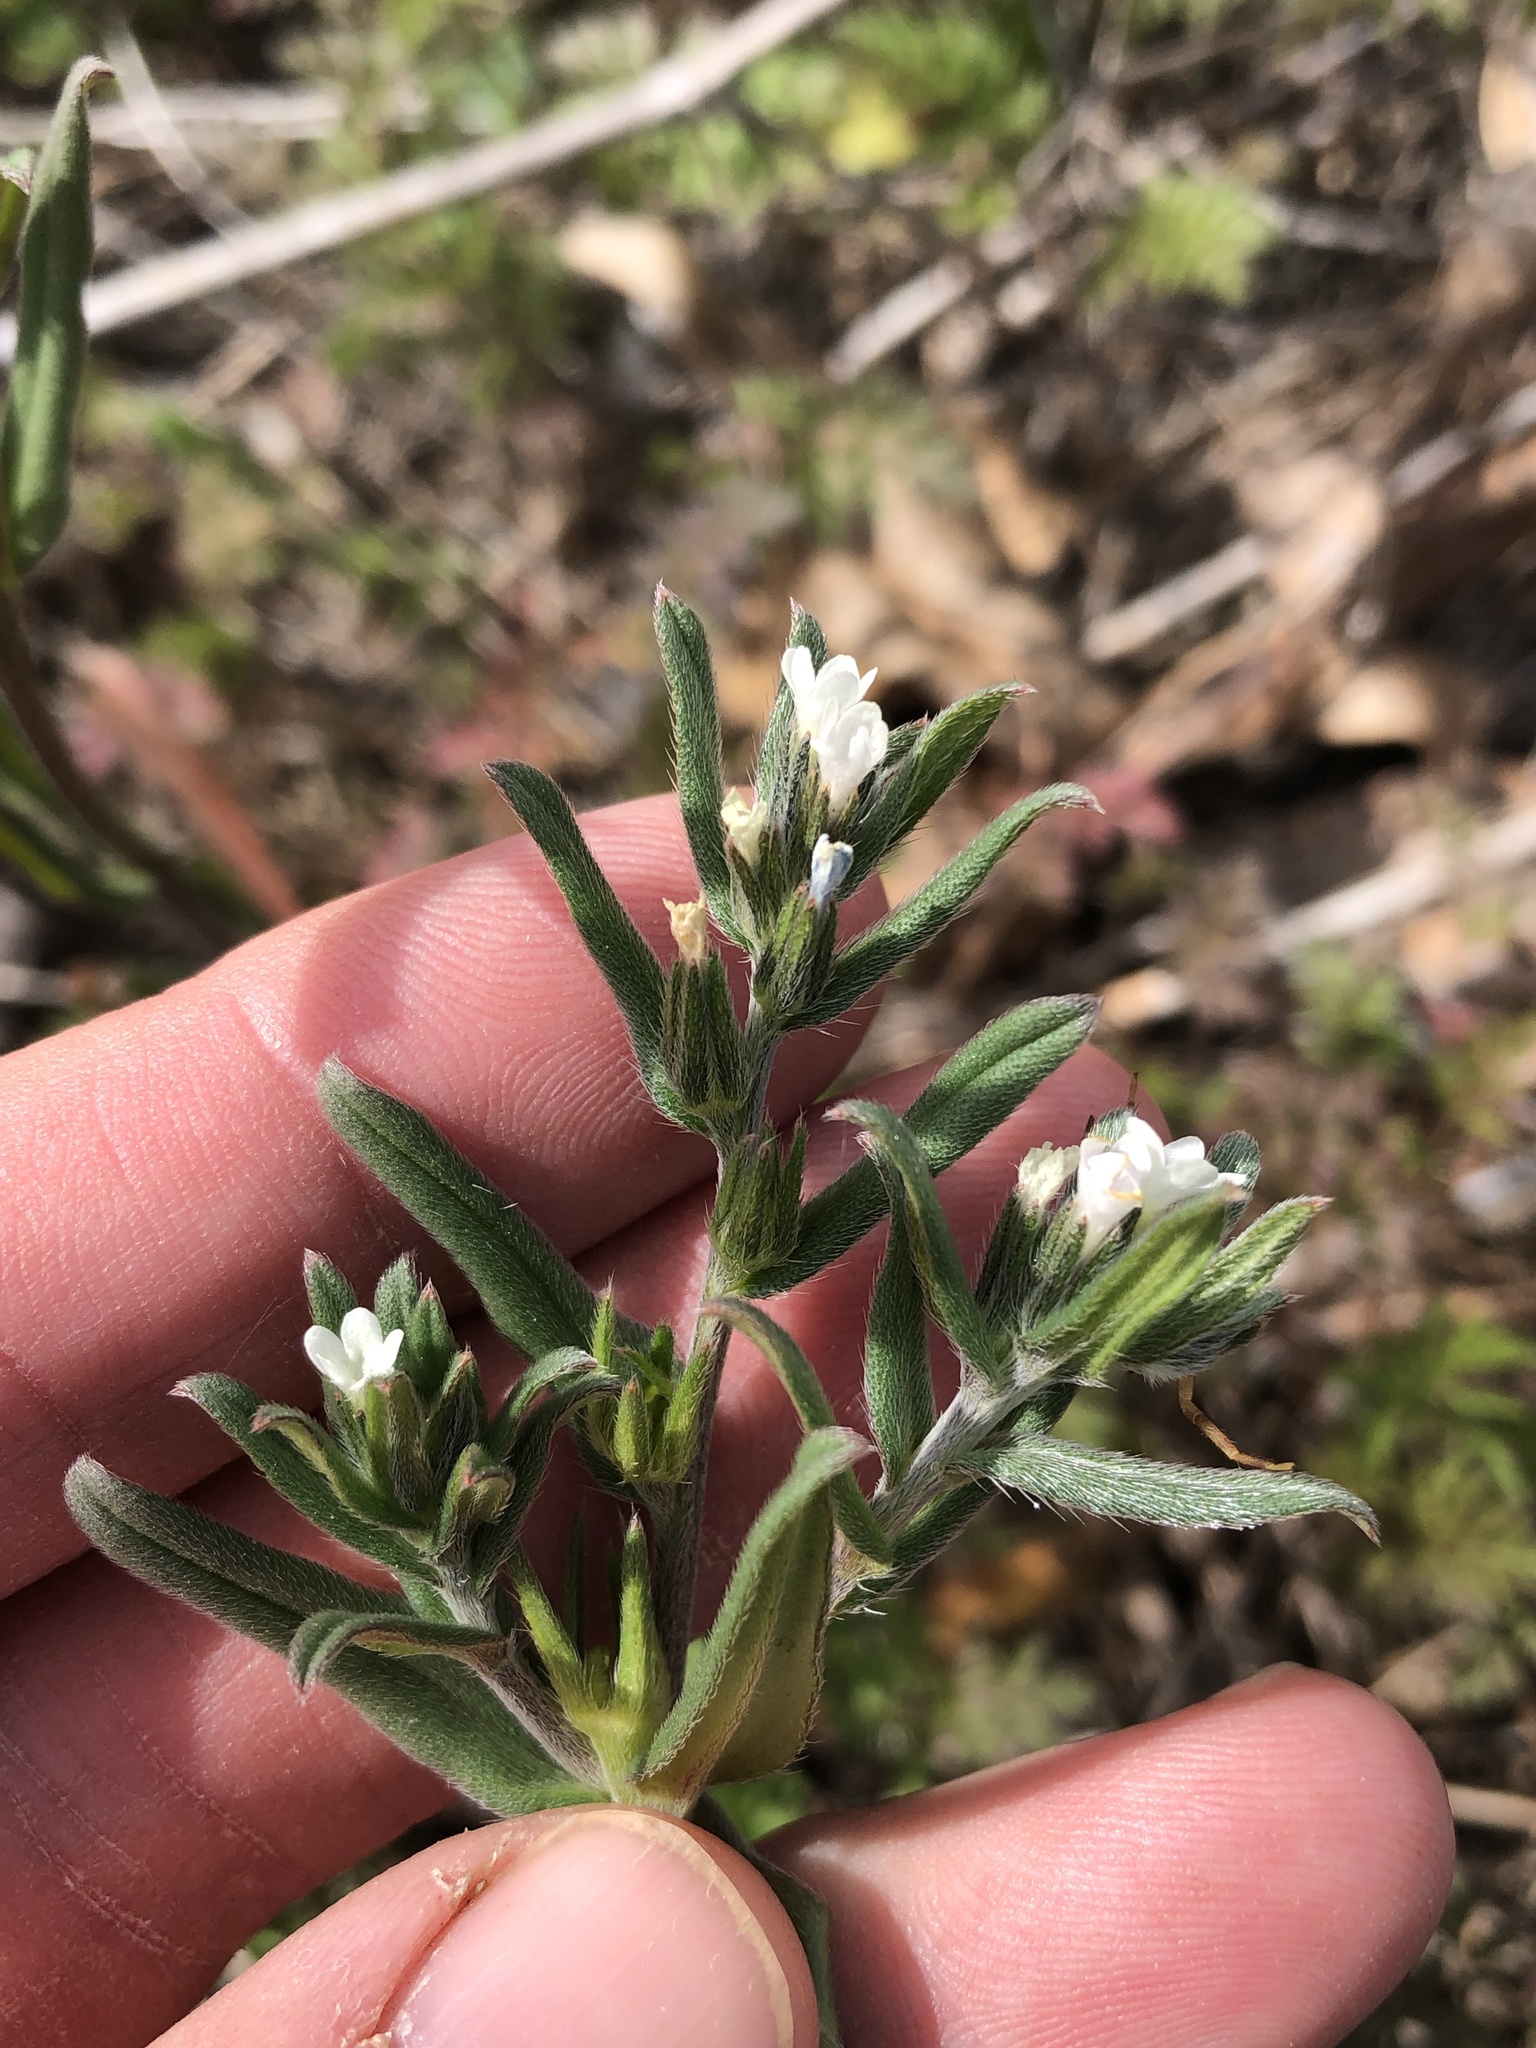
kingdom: Plantae
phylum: Tracheophyta
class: Magnoliopsida
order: Boraginales
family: Boraginaceae
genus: Buglossoides
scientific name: Buglossoides arvensis
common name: Corn gromwell
